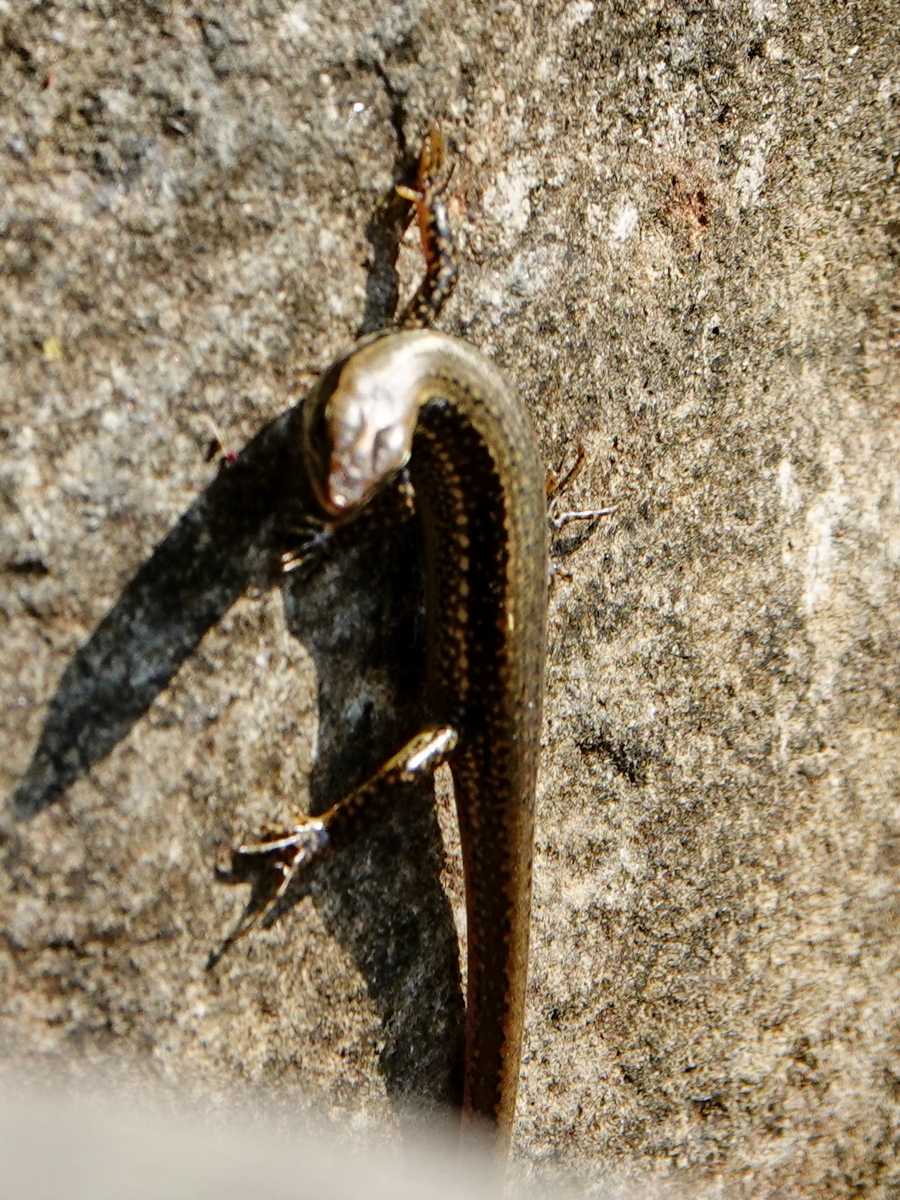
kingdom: Animalia
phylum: Chordata
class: Squamata
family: Scincidae
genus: Sphenomorphus
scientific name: Sphenomorphus maculatus
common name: Maculated forest skink
